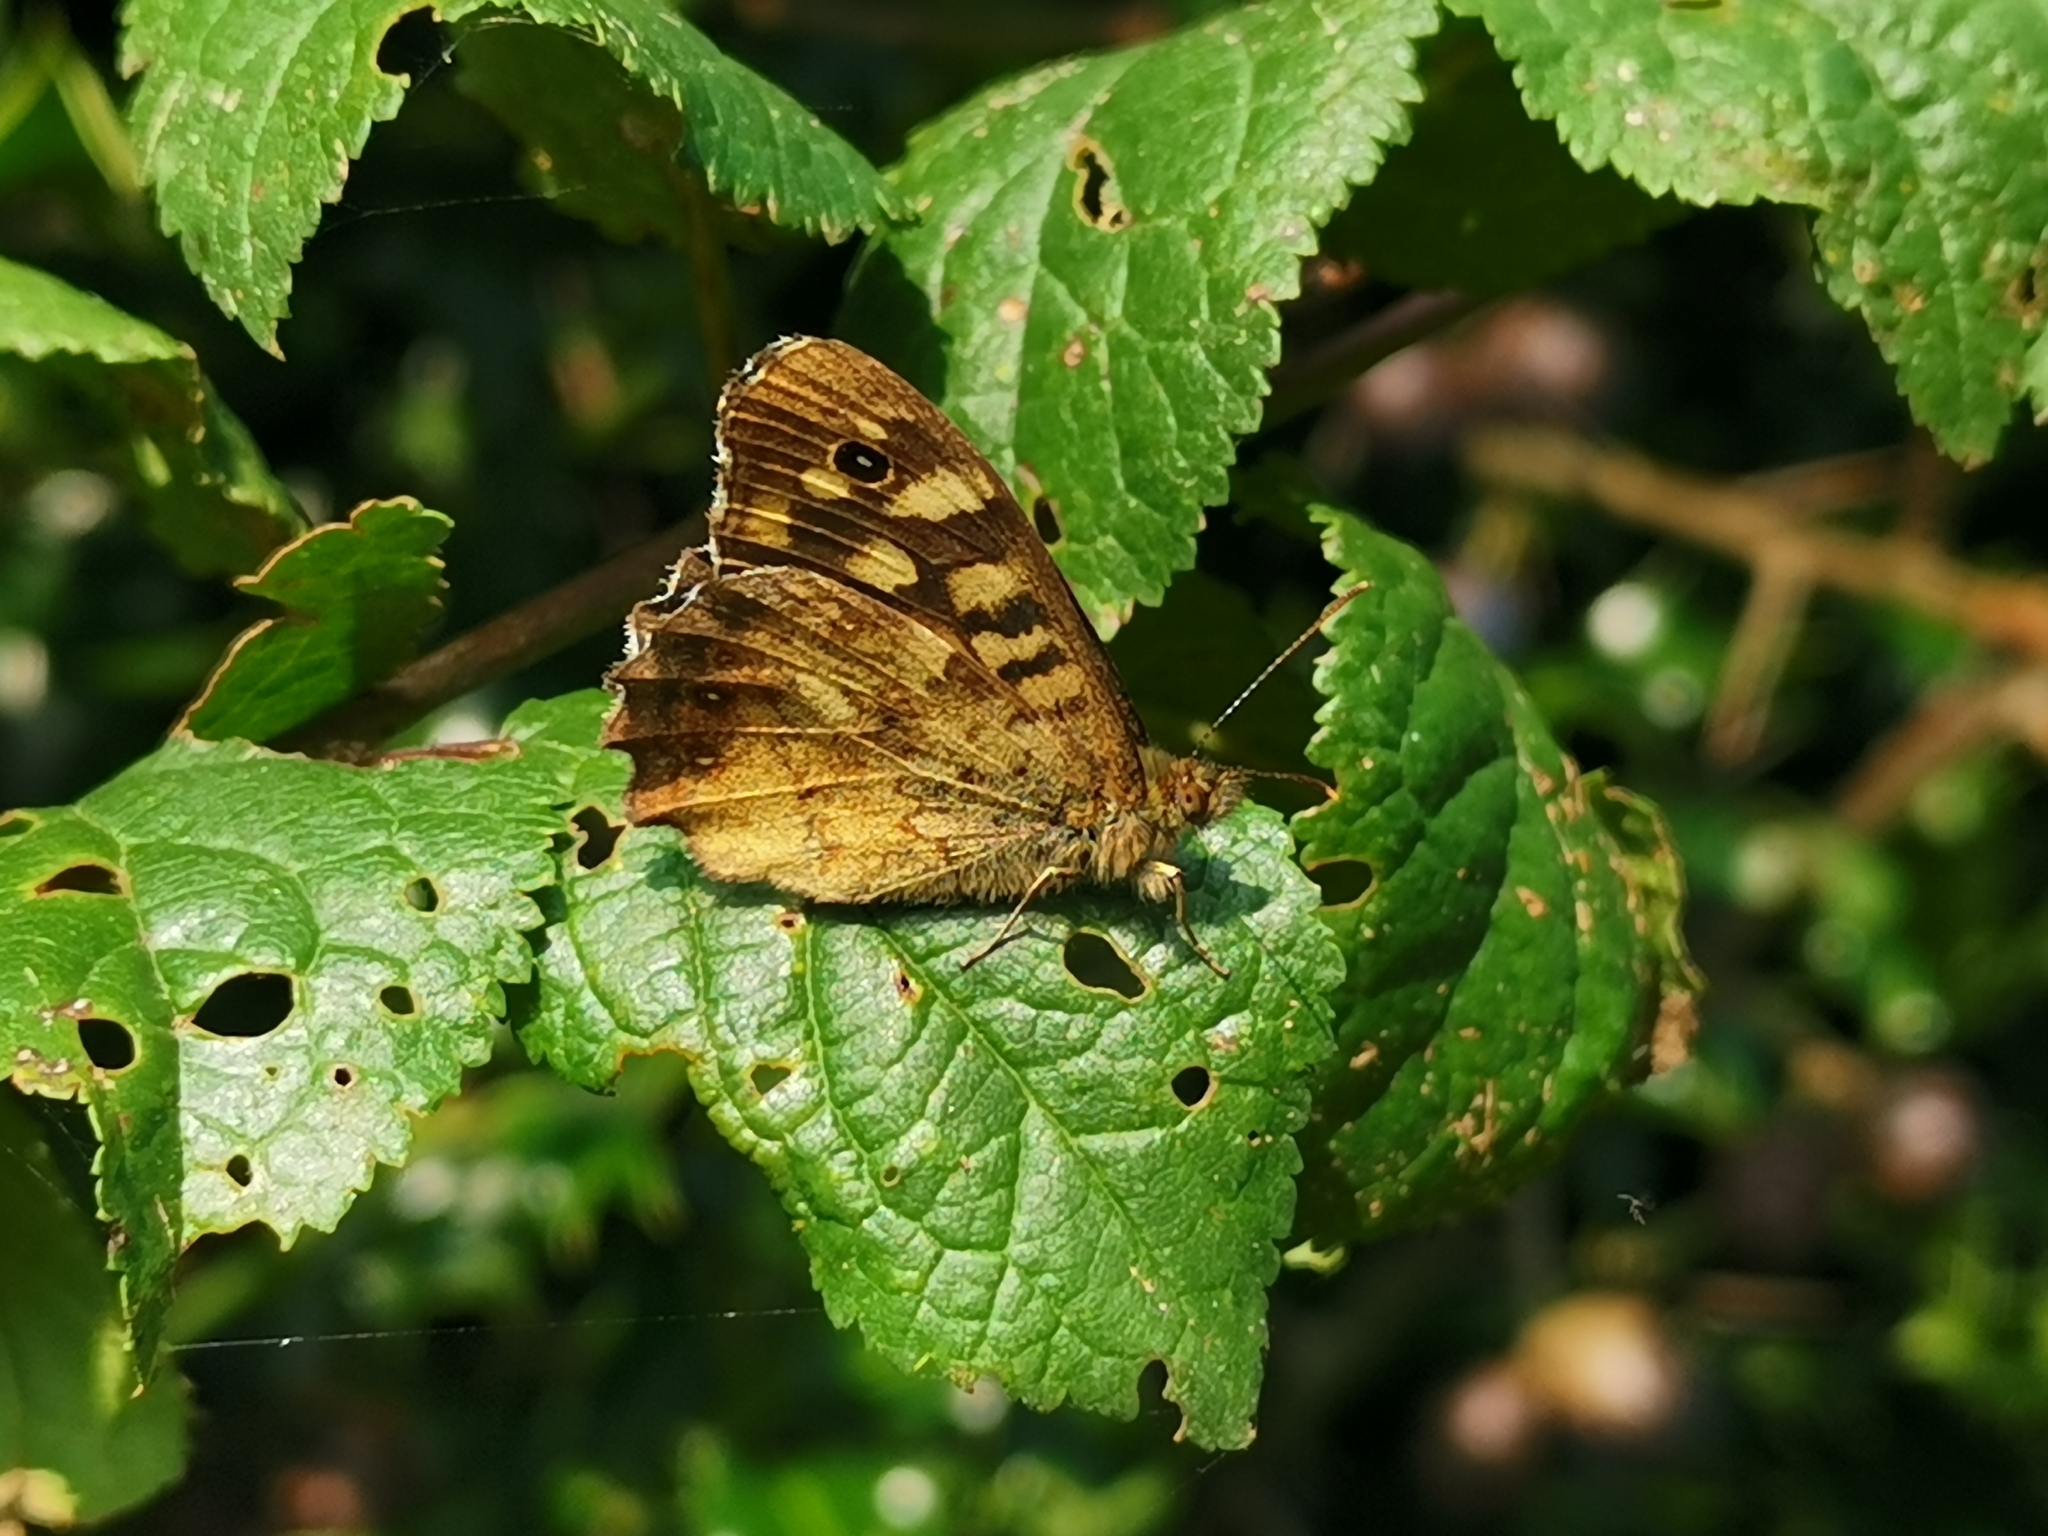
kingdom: Animalia
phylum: Arthropoda
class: Insecta
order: Lepidoptera
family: Nymphalidae
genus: Pararge
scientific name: Pararge aegeria
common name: Speckled wood
